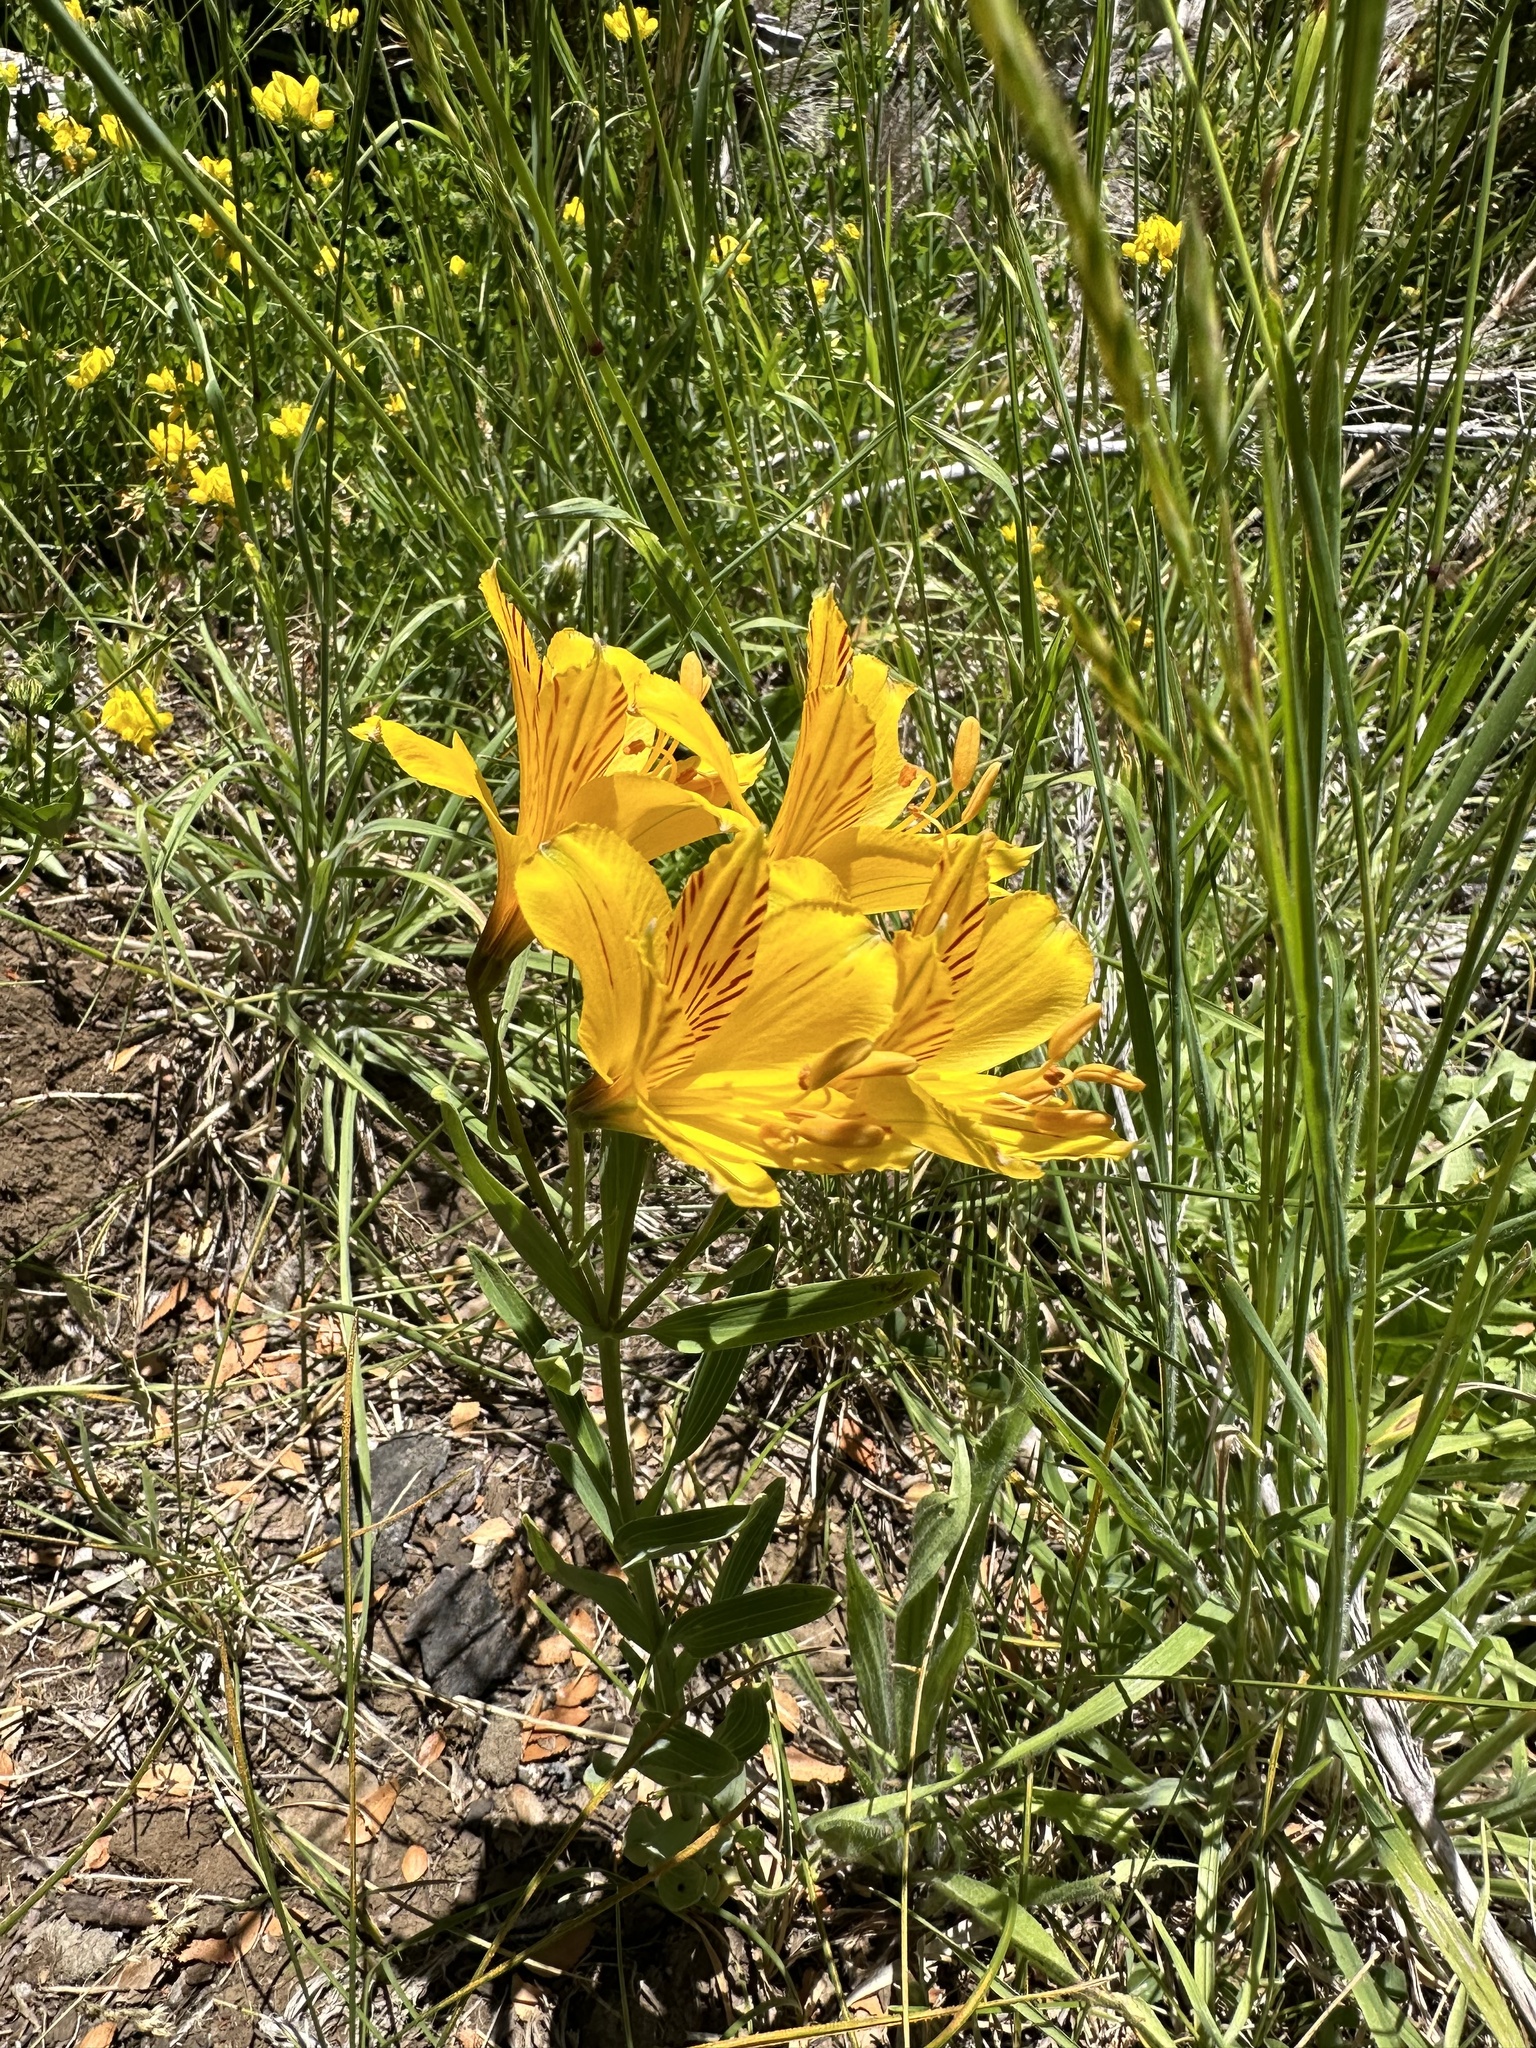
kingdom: Plantae
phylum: Tracheophyta
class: Liliopsida
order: Liliales
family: Alstroemeriaceae
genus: Alstroemeria
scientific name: Alstroemeria aurea
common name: Peruvian lily
